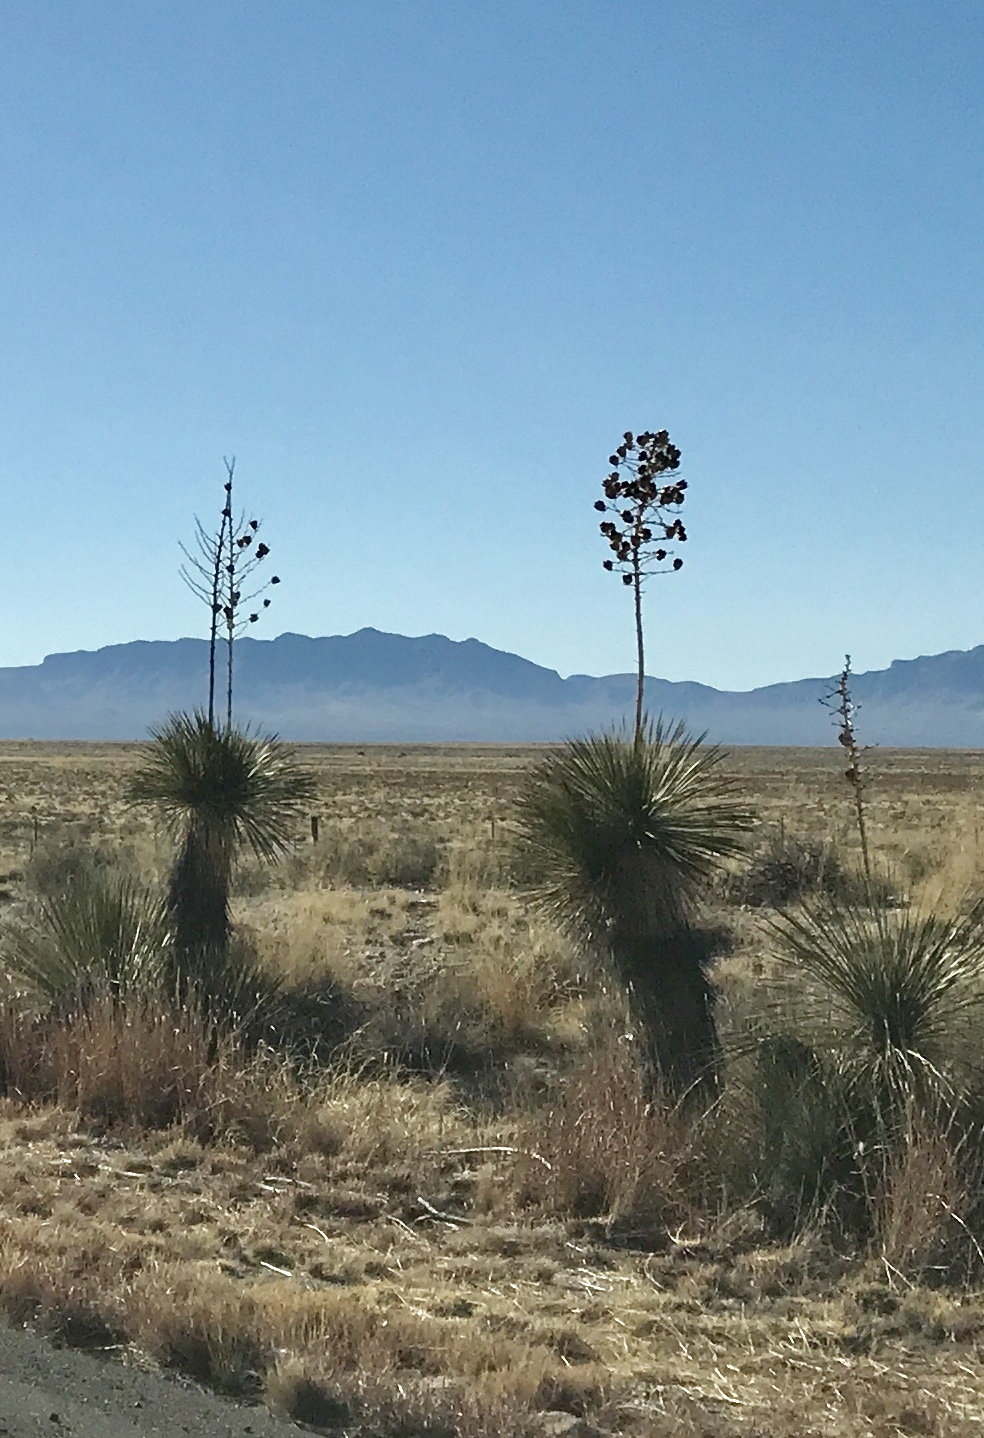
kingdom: Plantae
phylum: Tracheophyta
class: Liliopsida
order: Asparagales
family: Asparagaceae
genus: Yucca
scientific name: Yucca elata
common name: Palmella
